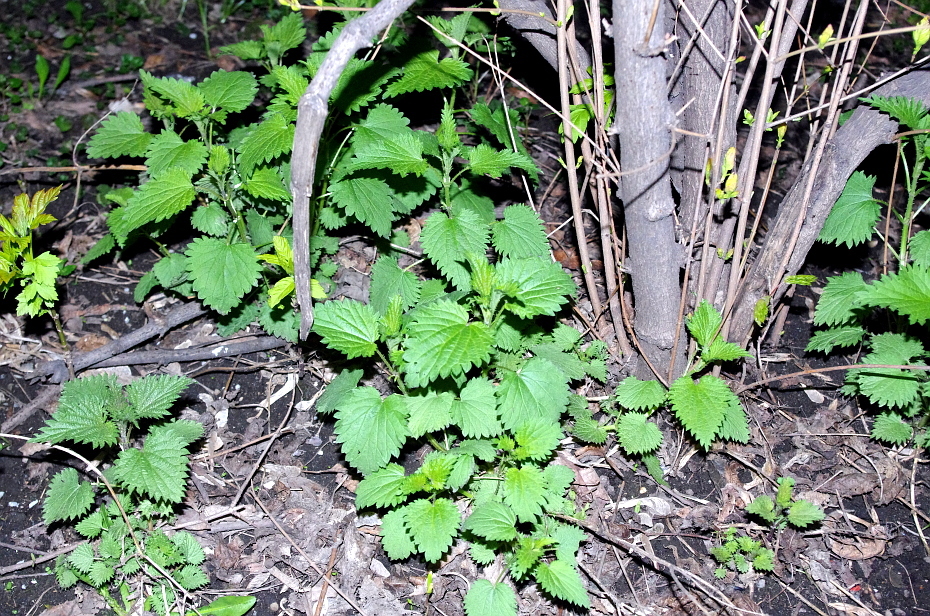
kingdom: Plantae
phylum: Tracheophyta
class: Magnoliopsida
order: Rosales
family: Urticaceae
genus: Urtica
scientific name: Urtica dioica
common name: Common nettle
